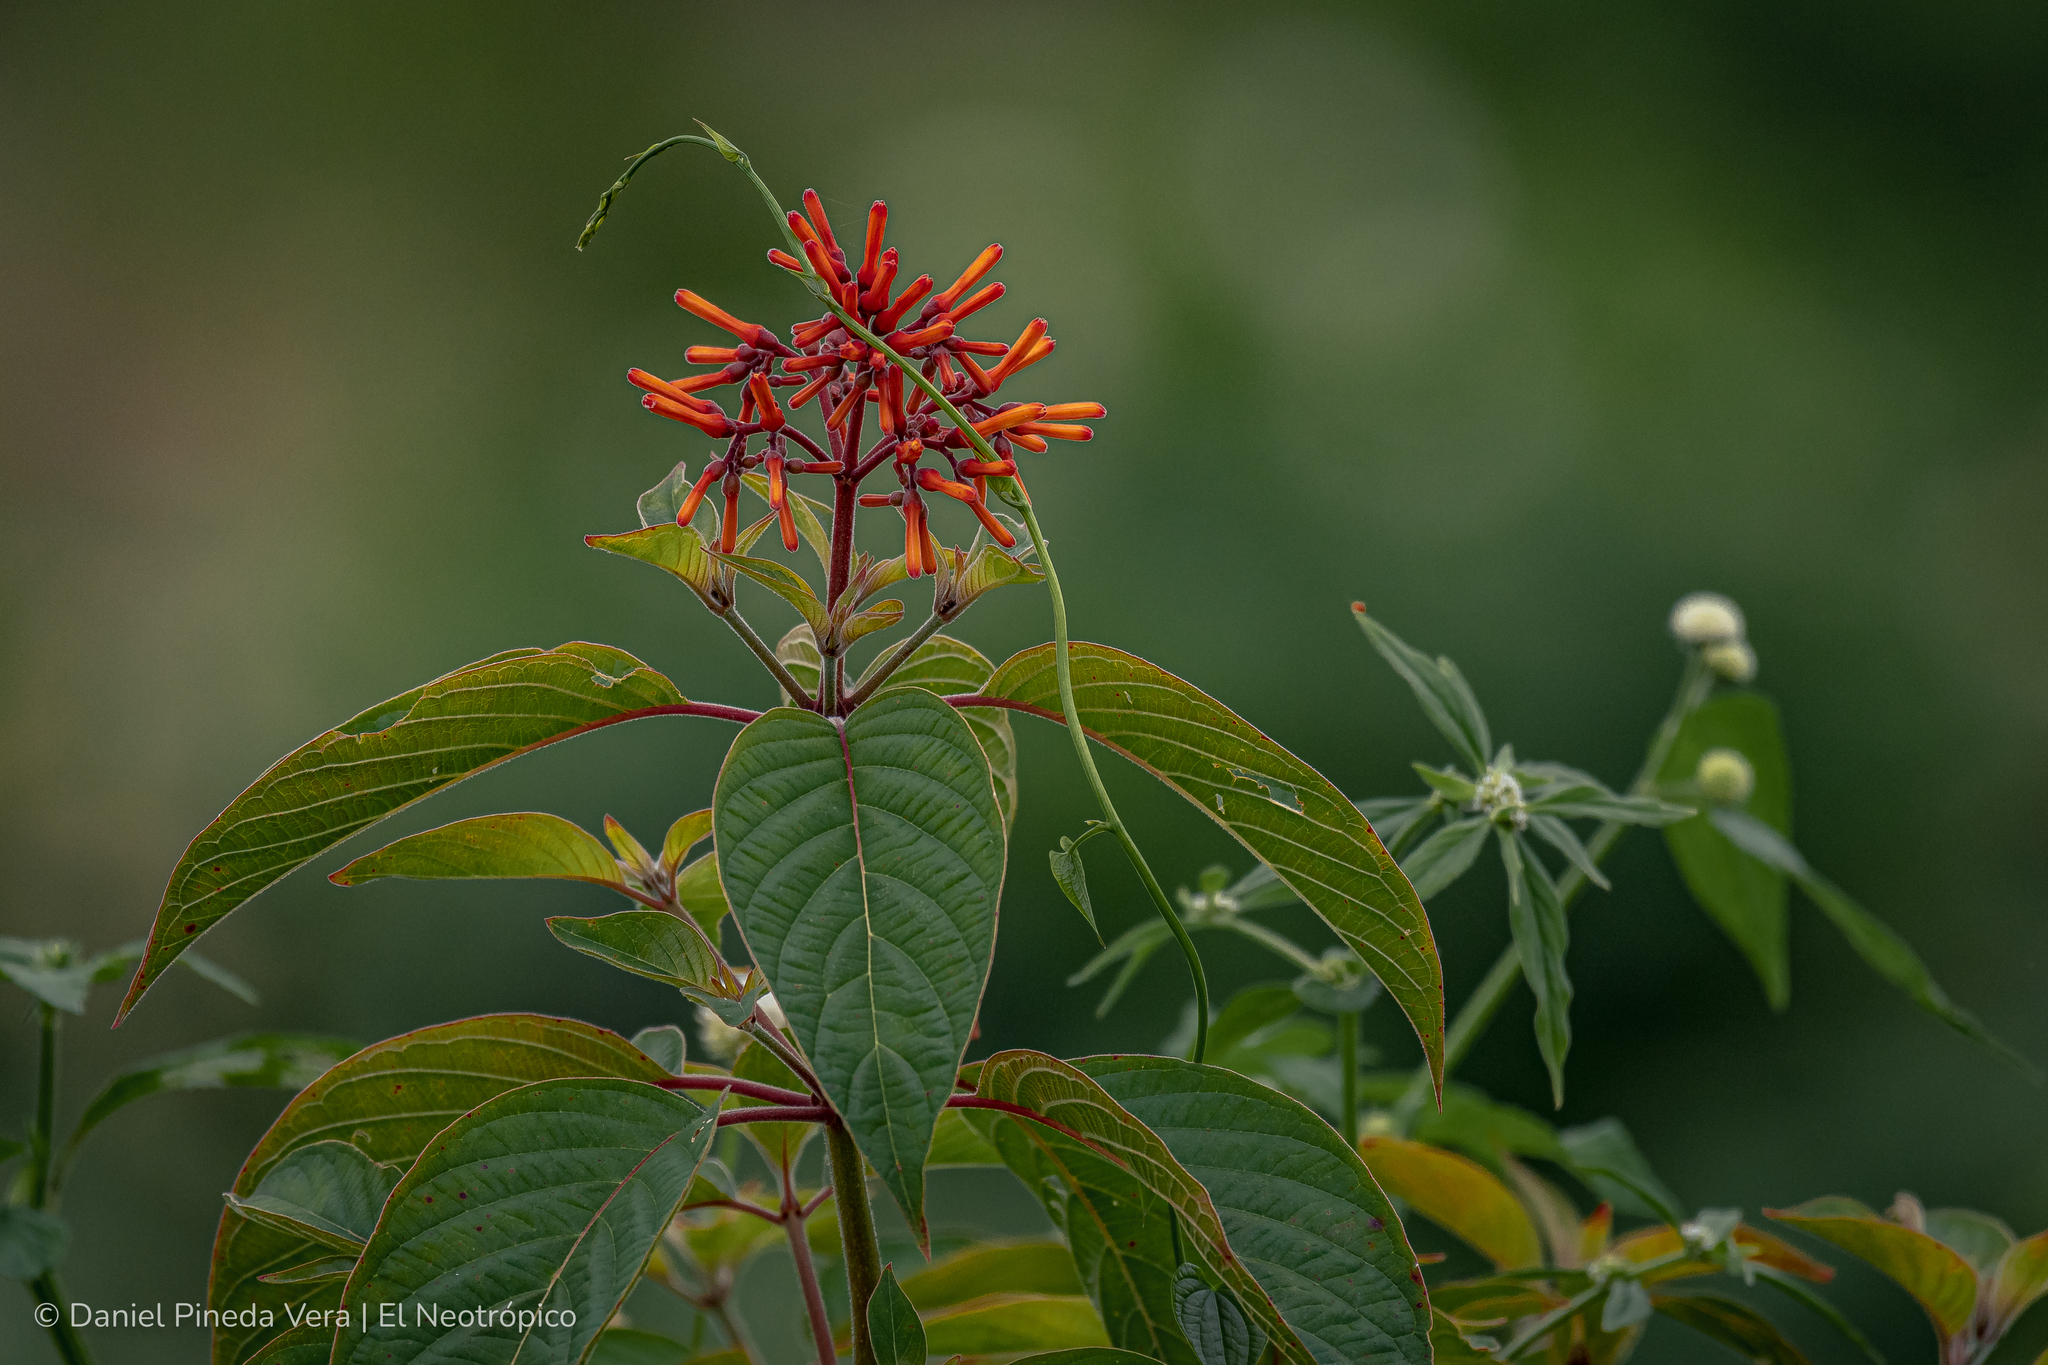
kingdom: Plantae
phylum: Tracheophyta
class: Magnoliopsida
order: Gentianales
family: Rubiaceae
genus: Hamelia
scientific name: Hamelia patens
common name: Redhead
